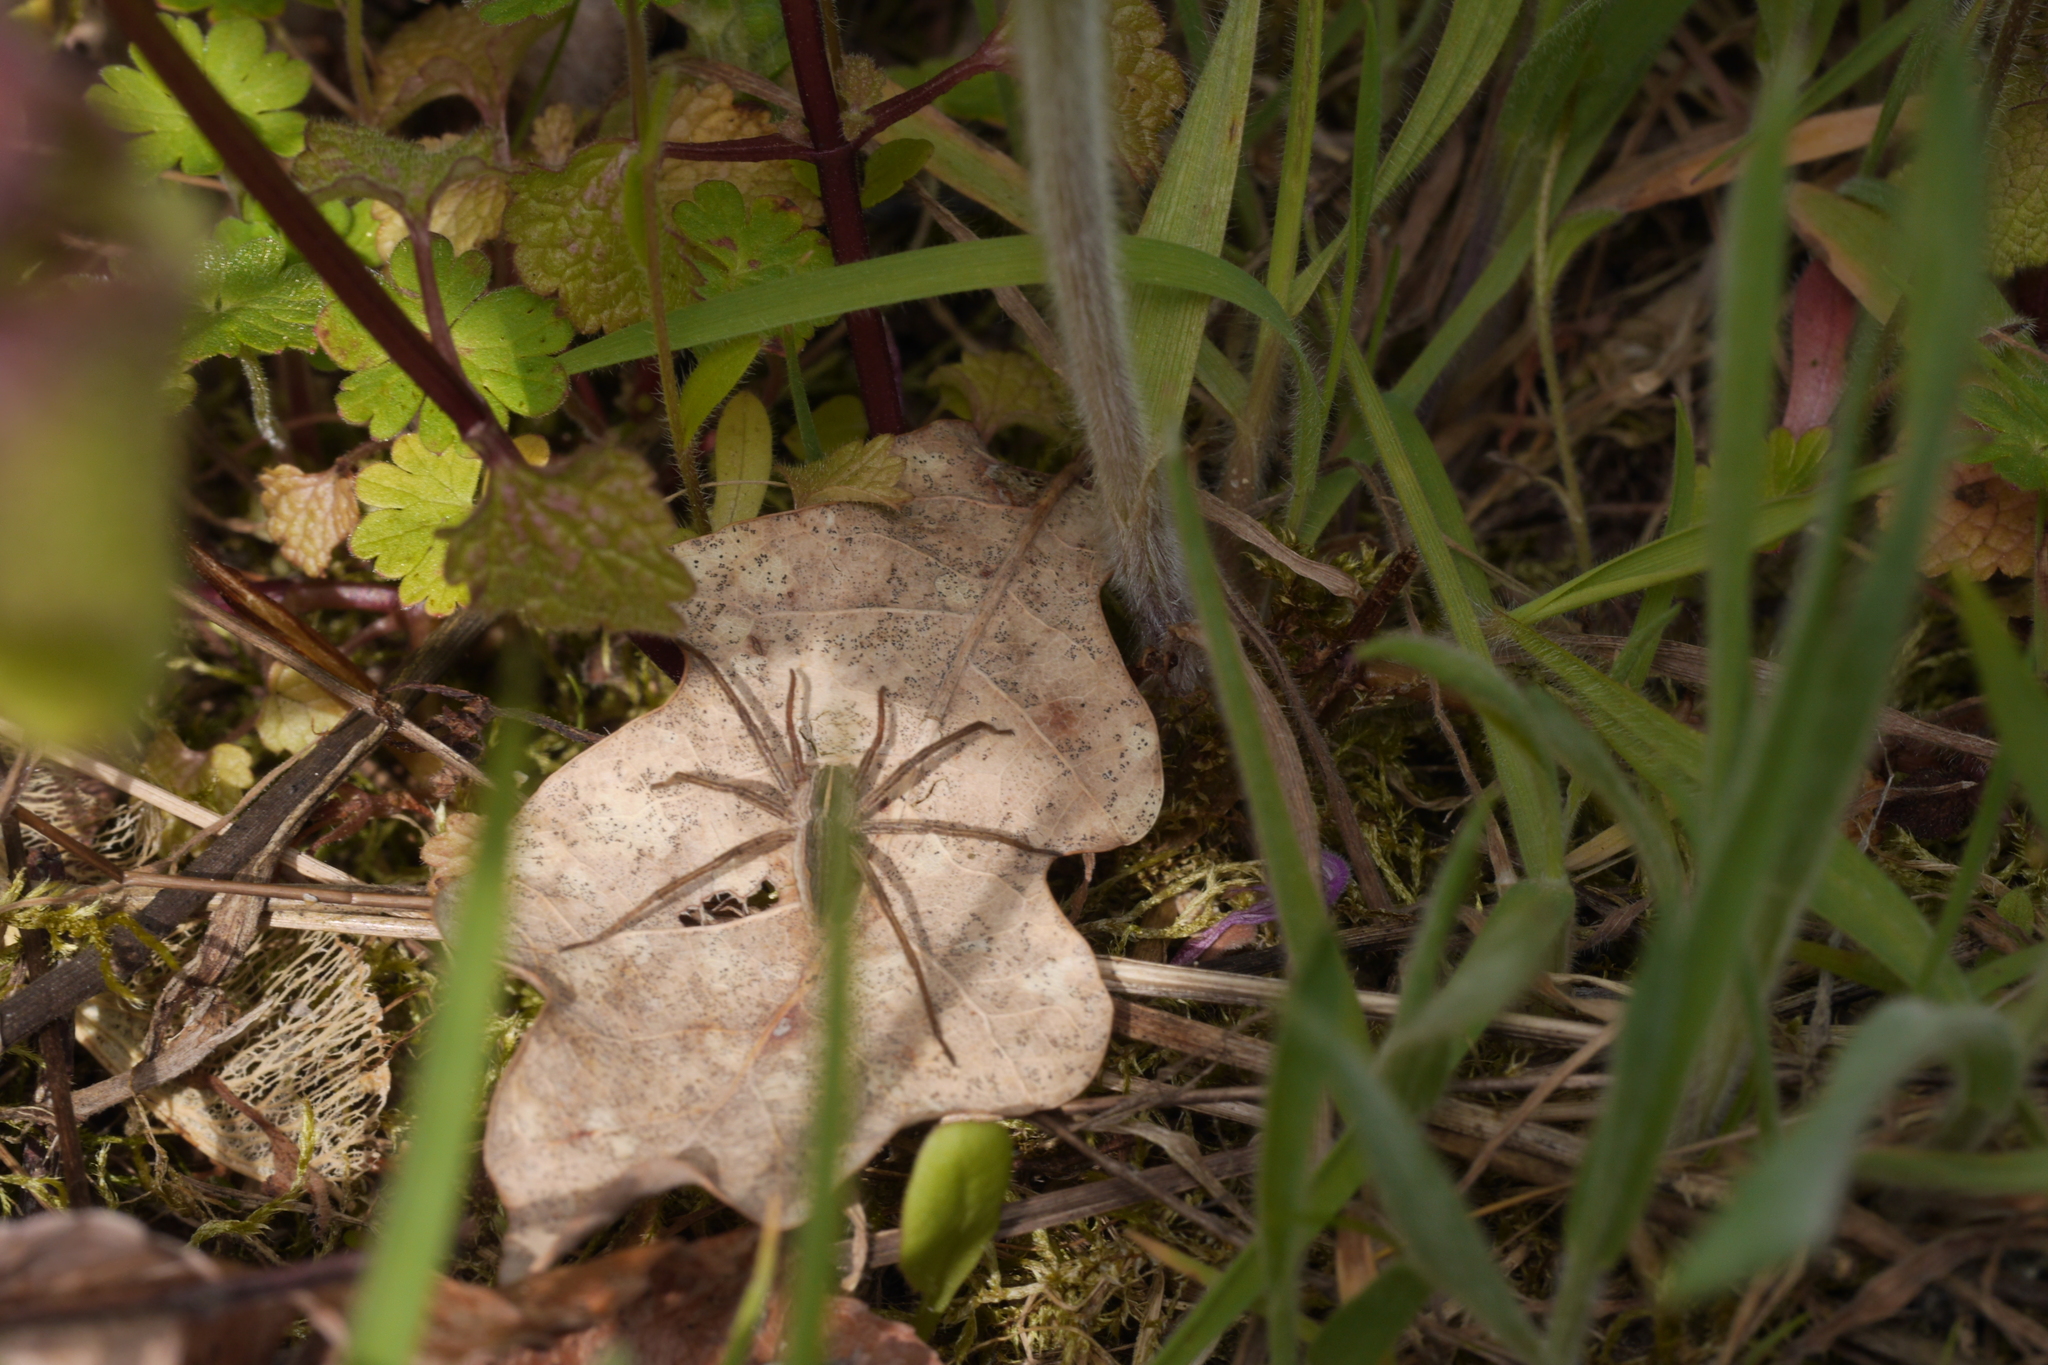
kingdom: Animalia
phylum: Arthropoda
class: Arachnida
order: Araneae
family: Pisauridae
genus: Pisaura
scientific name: Pisaura mirabilis
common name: Tent spider
